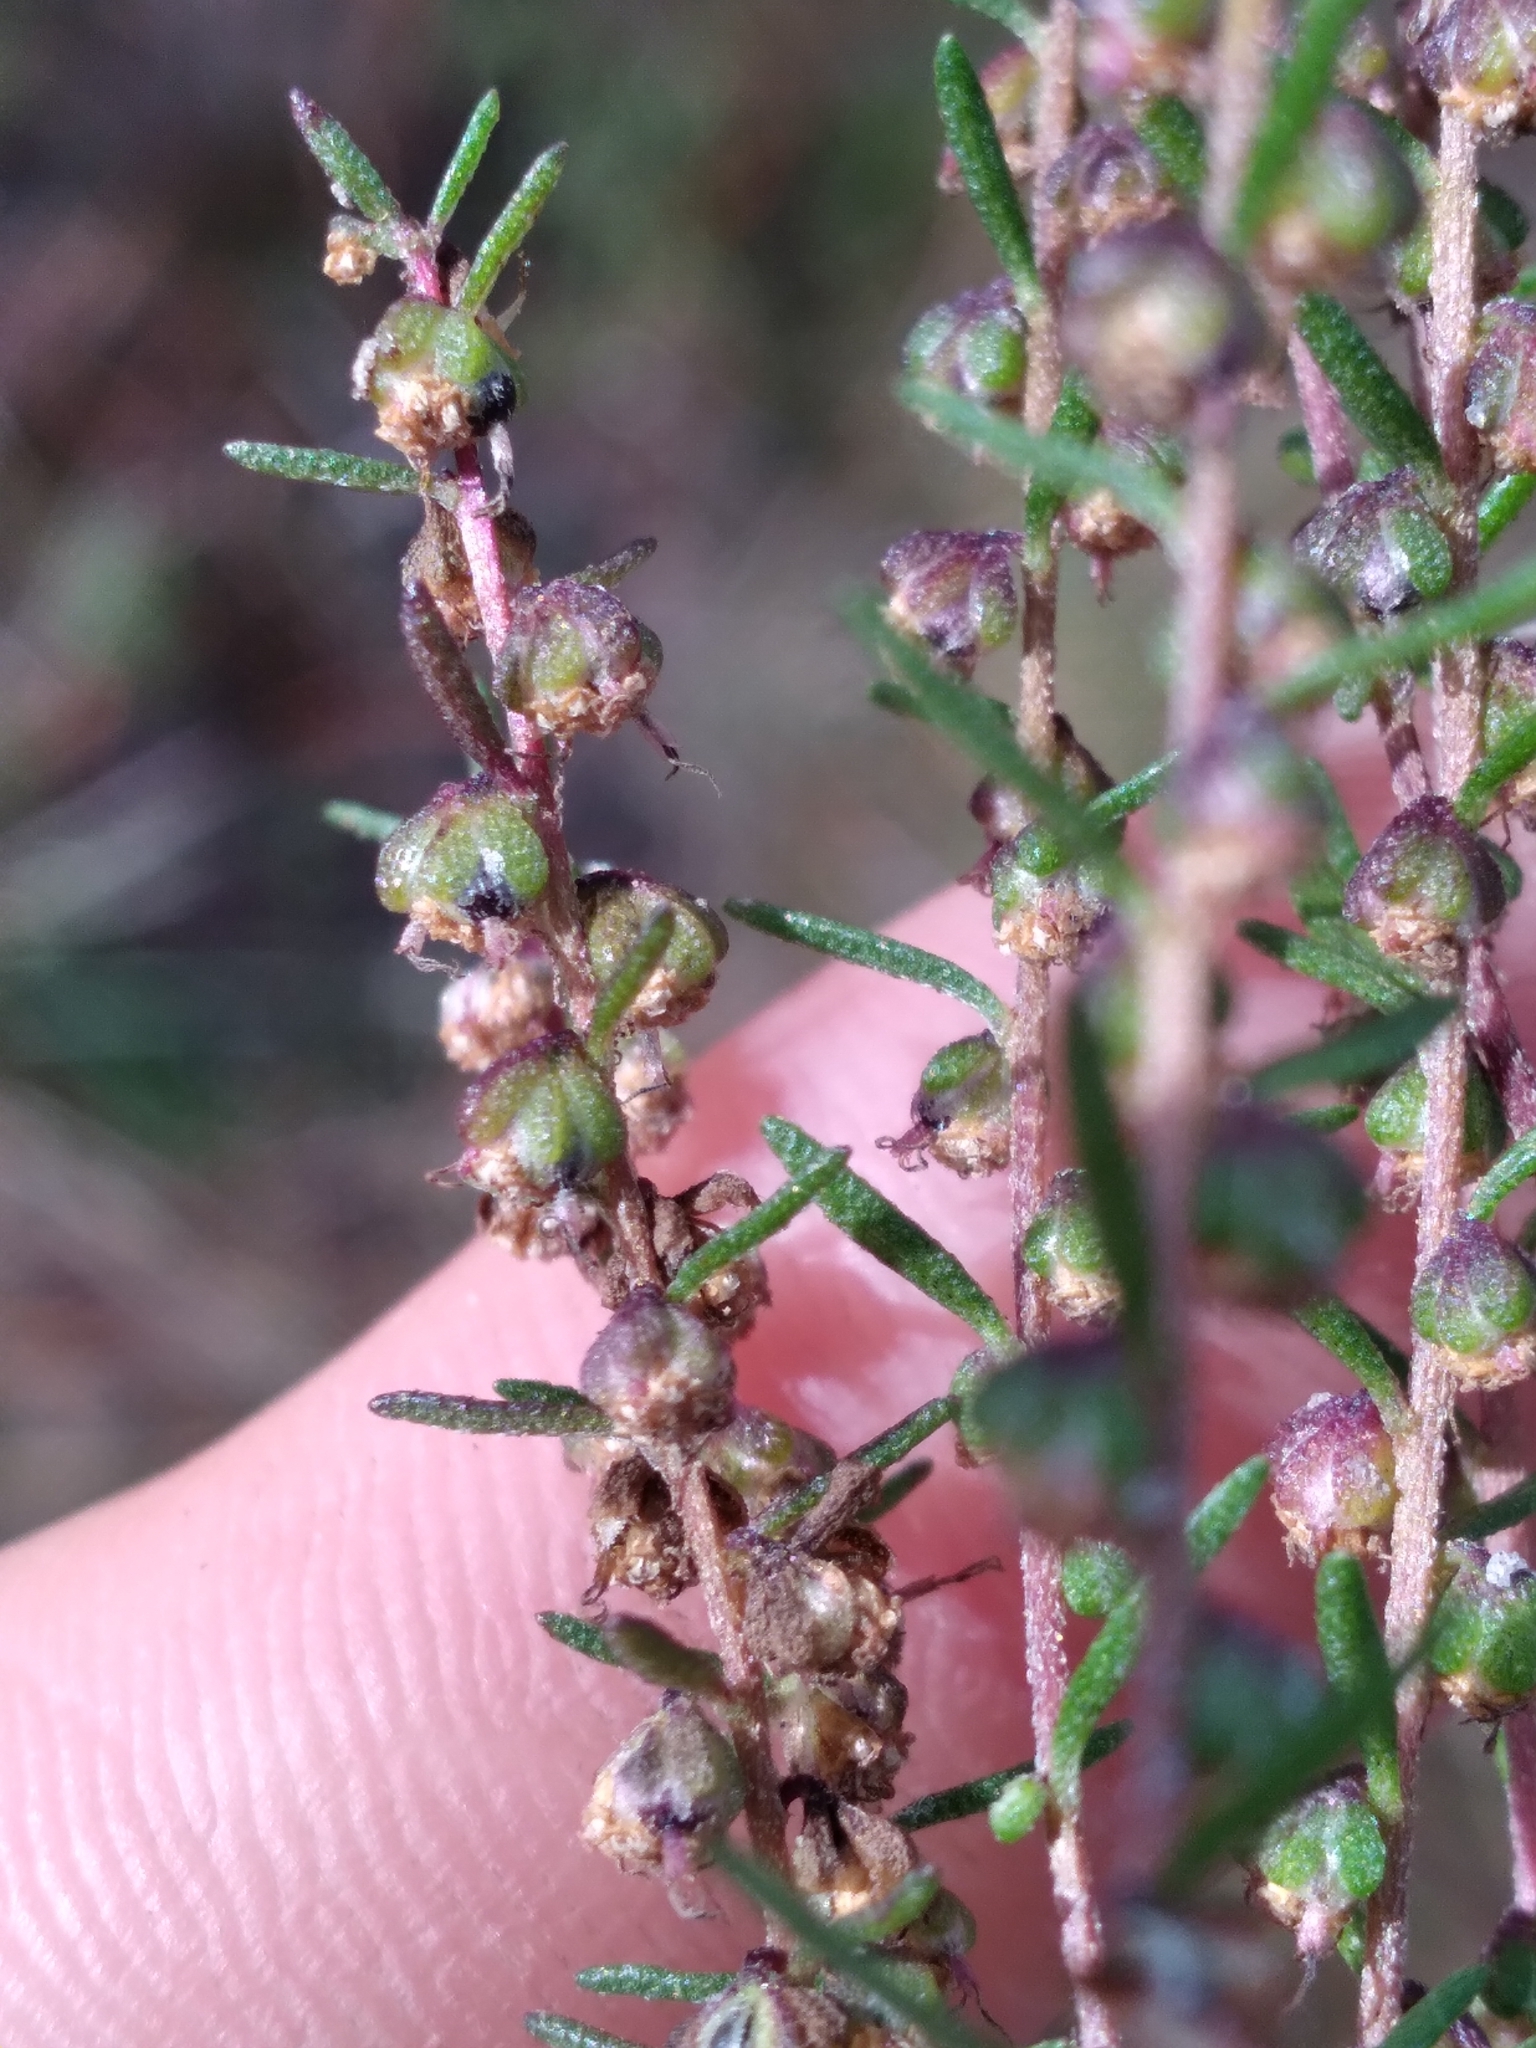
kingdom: Plantae
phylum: Tracheophyta
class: Magnoliopsida
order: Asterales
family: Asteraceae
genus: Iva
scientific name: Iva microcephala
